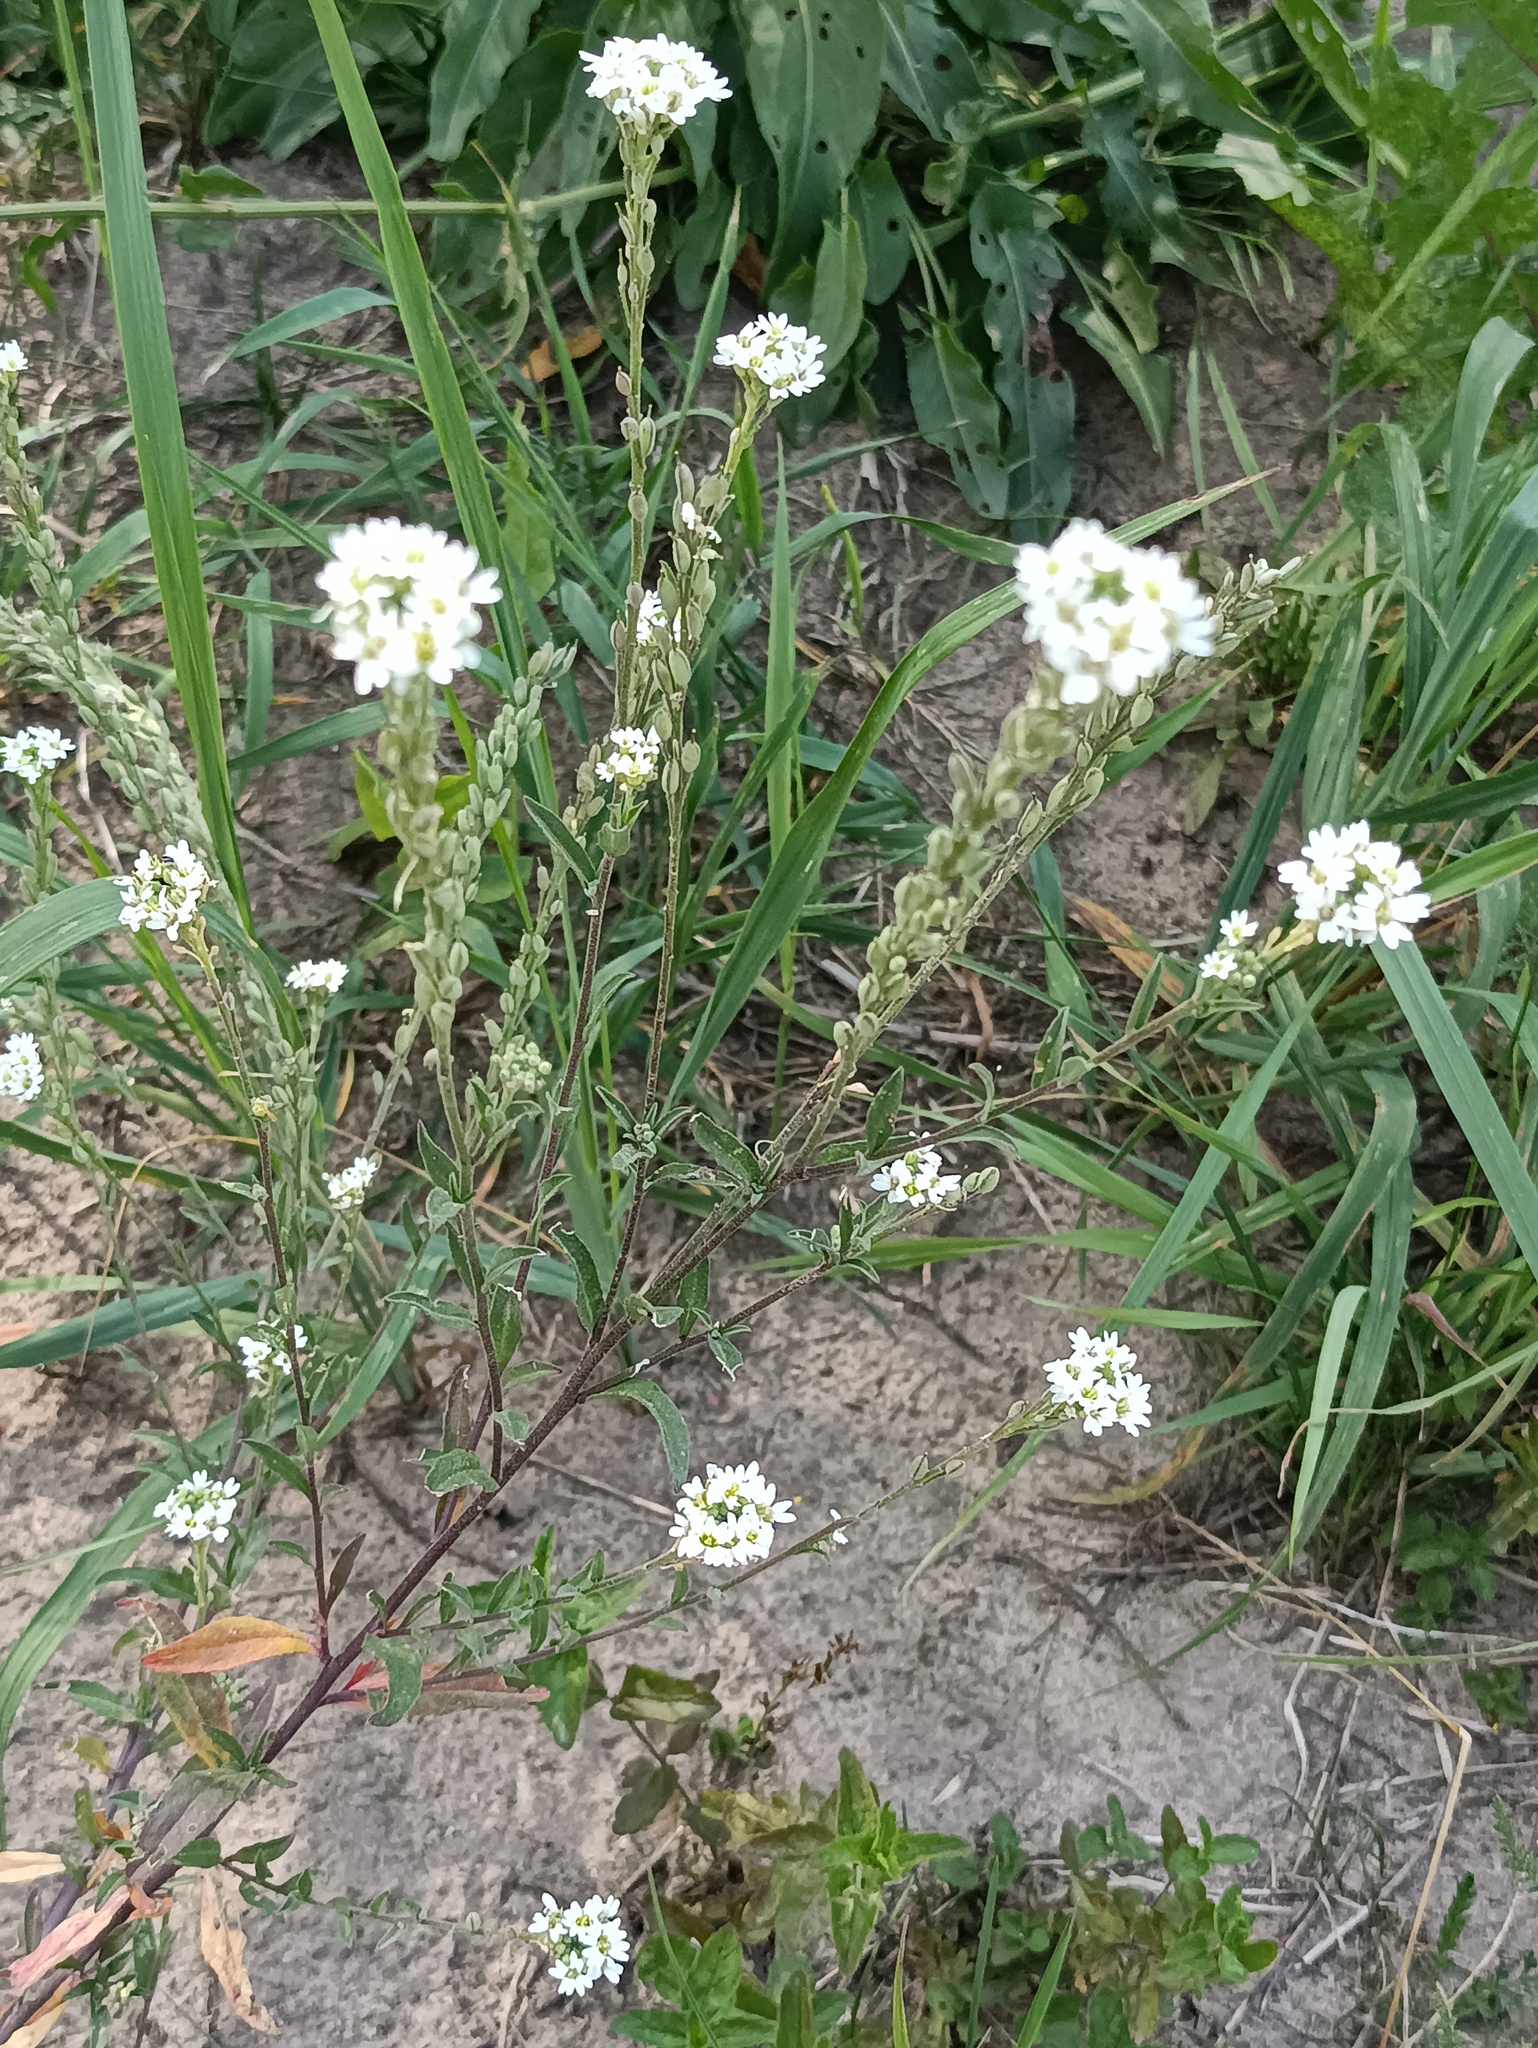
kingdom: Plantae
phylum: Tracheophyta
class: Magnoliopsida
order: Brassicales
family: Brassicaceae
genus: Berteroa
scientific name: Berteroa incana
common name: Hoary alison
